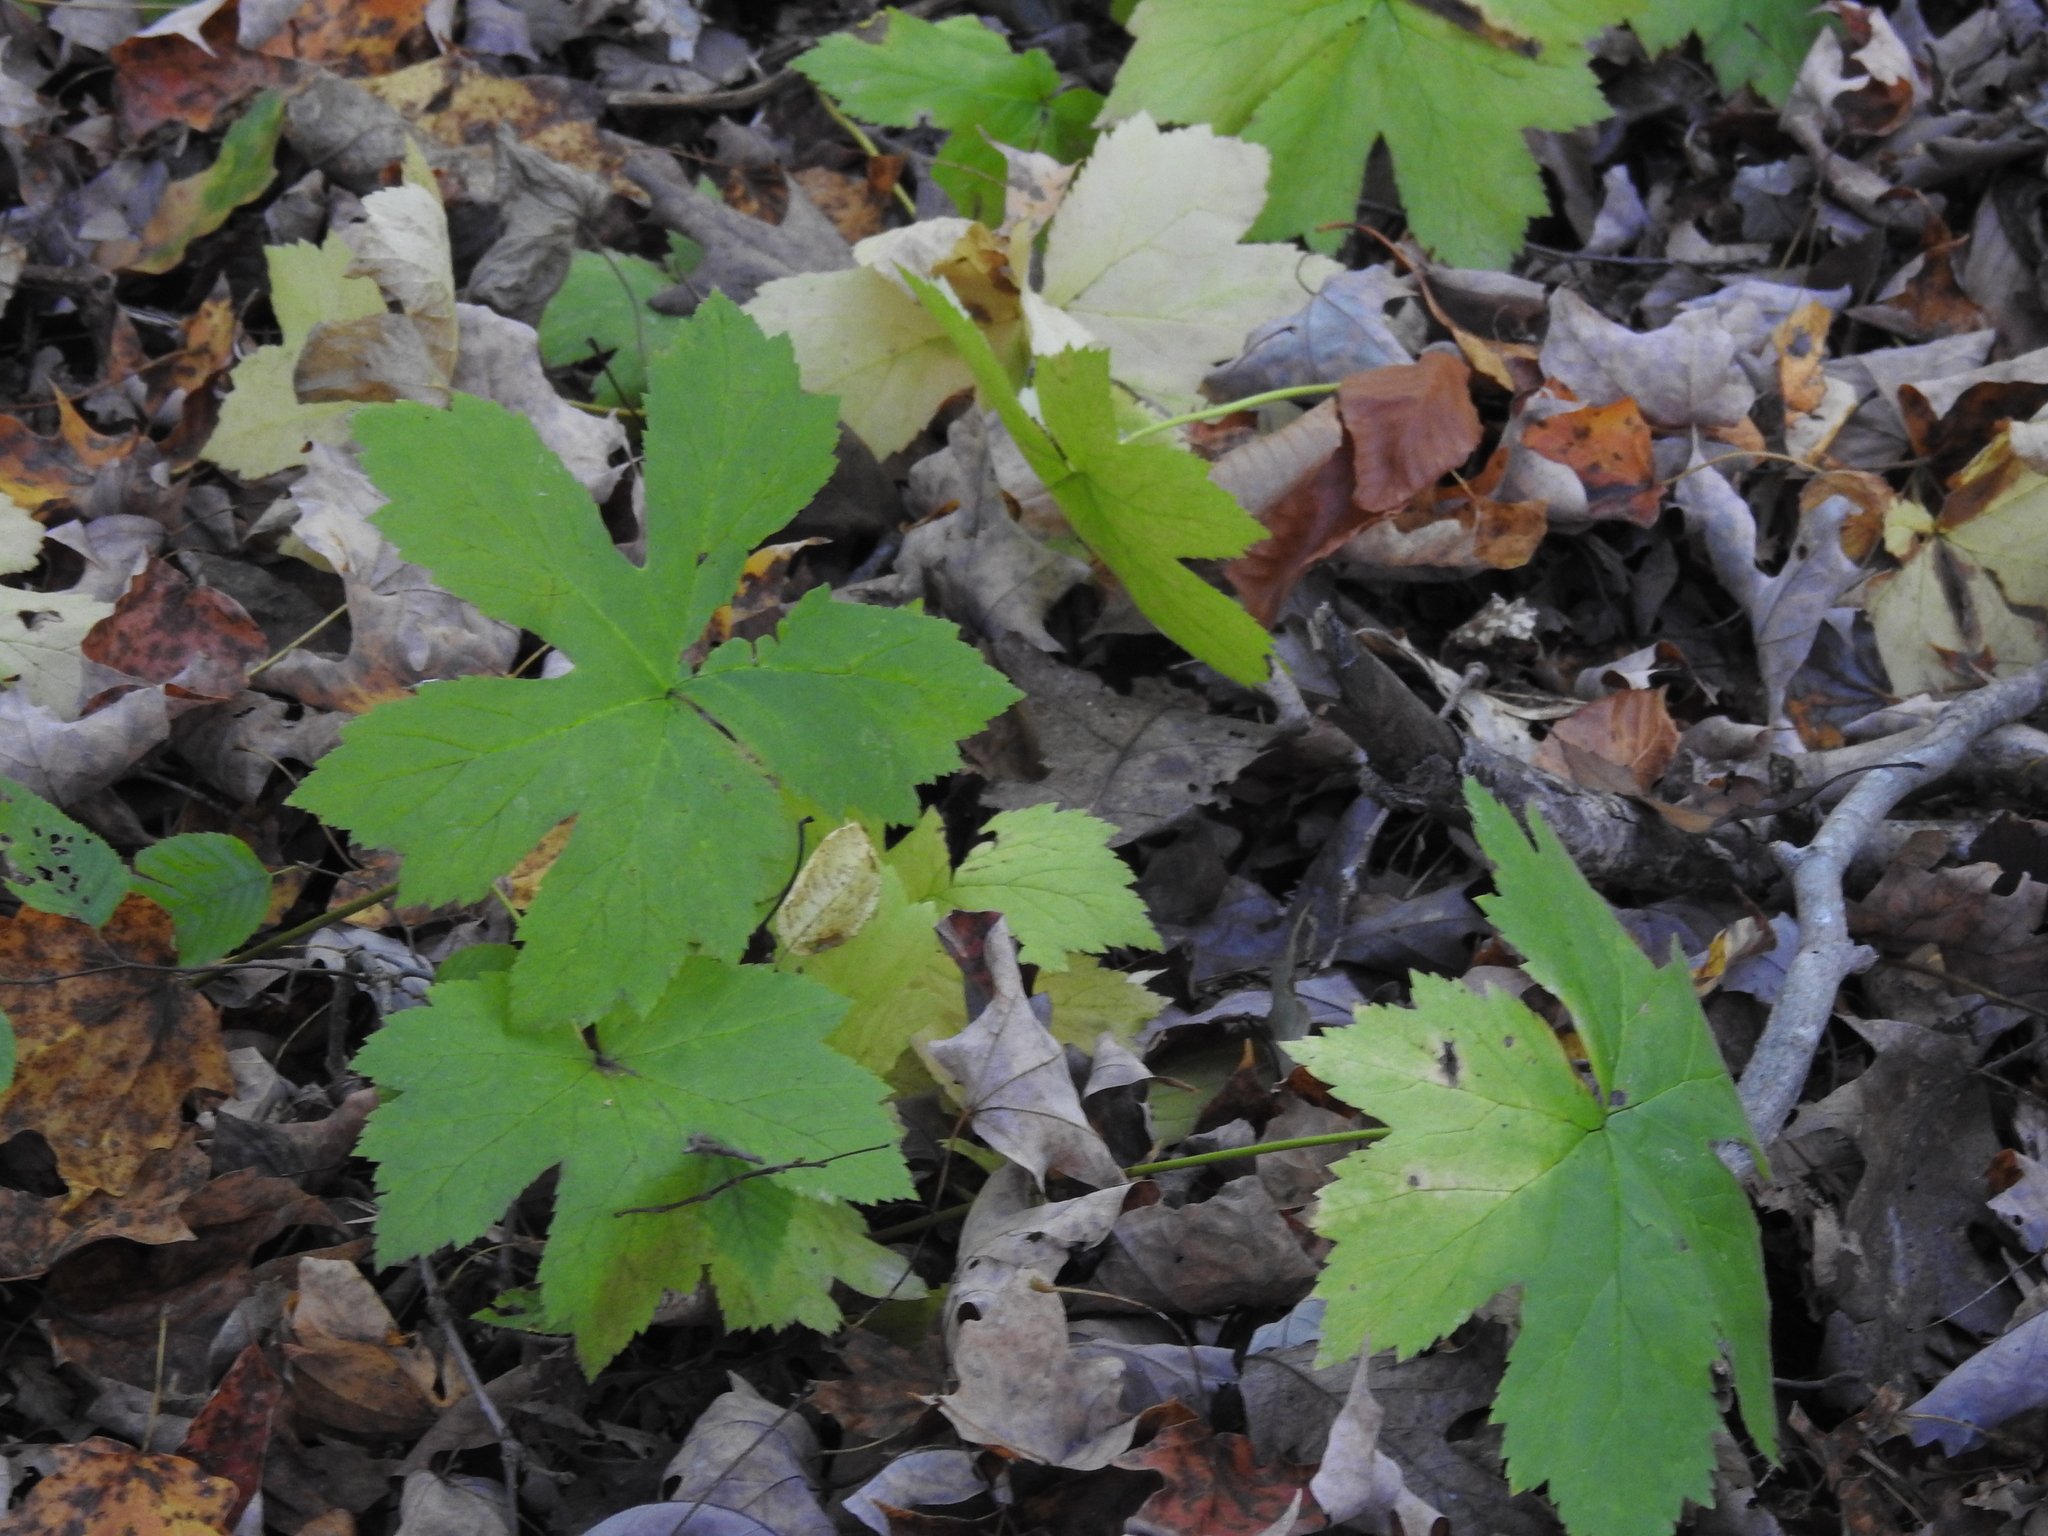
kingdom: Plantae
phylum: Tracheophyta
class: Magnoliopsida
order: Ranunculales
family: Ranunculaceae
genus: Hydrastis
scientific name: Hydrastis canadensis
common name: Goldenseal
